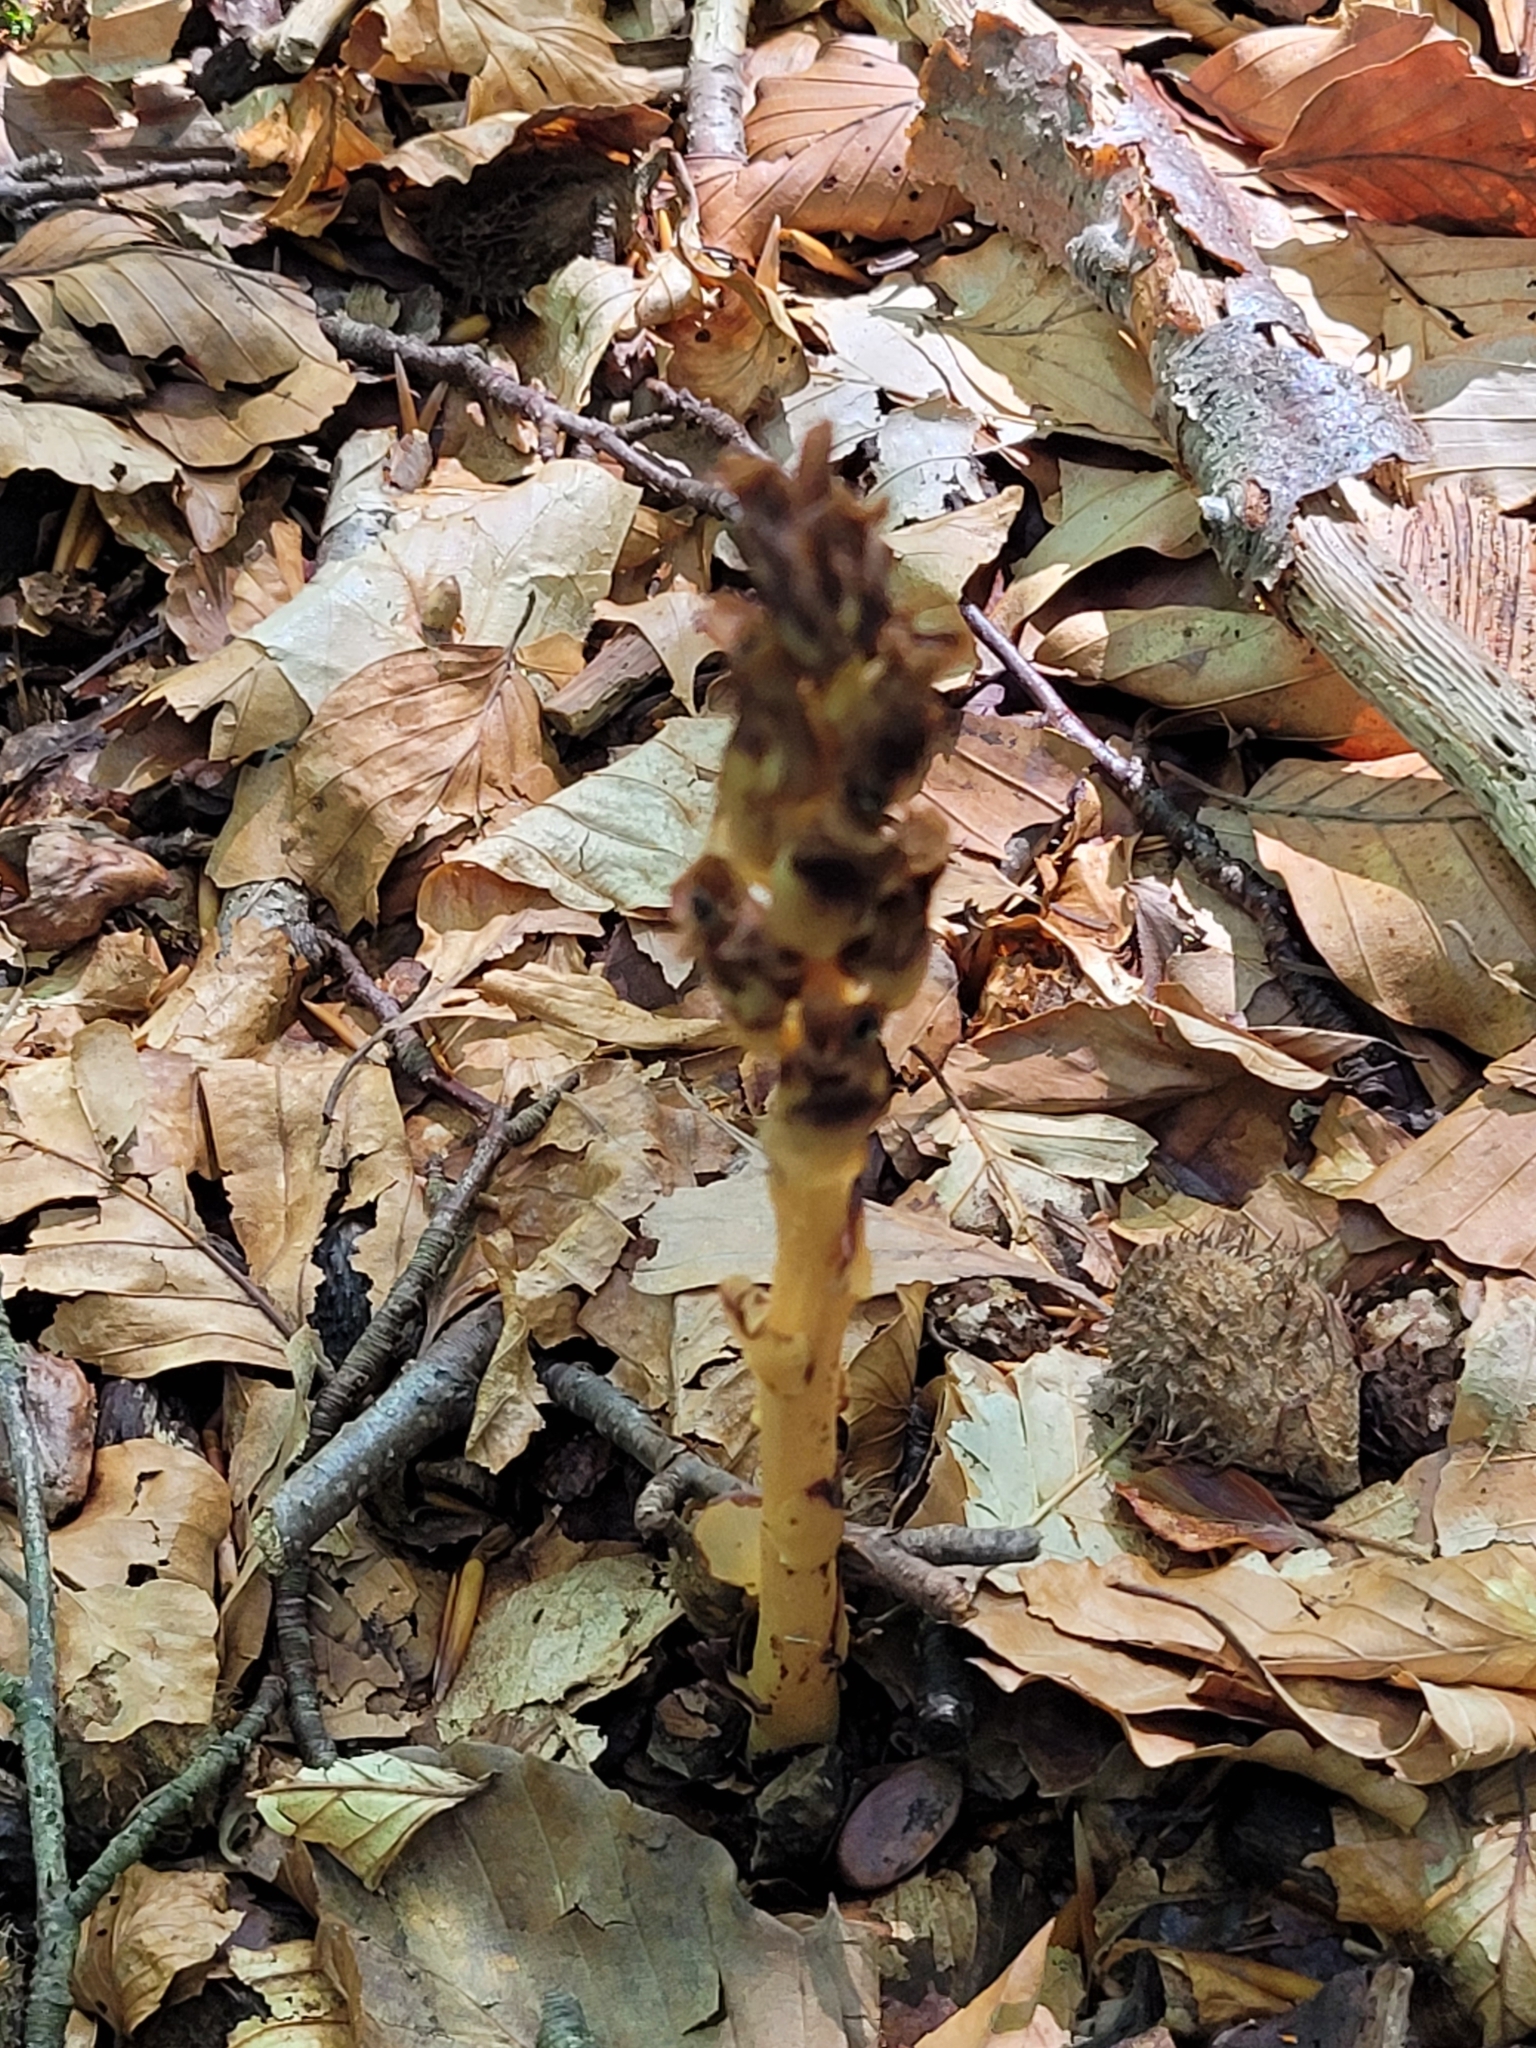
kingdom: Plantae
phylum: Tracheophyta
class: Magnoliopsida
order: Ericales
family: Ericaceae
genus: Hypopitys
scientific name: Hypopitys monotropa
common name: Yellow bird's-nest
